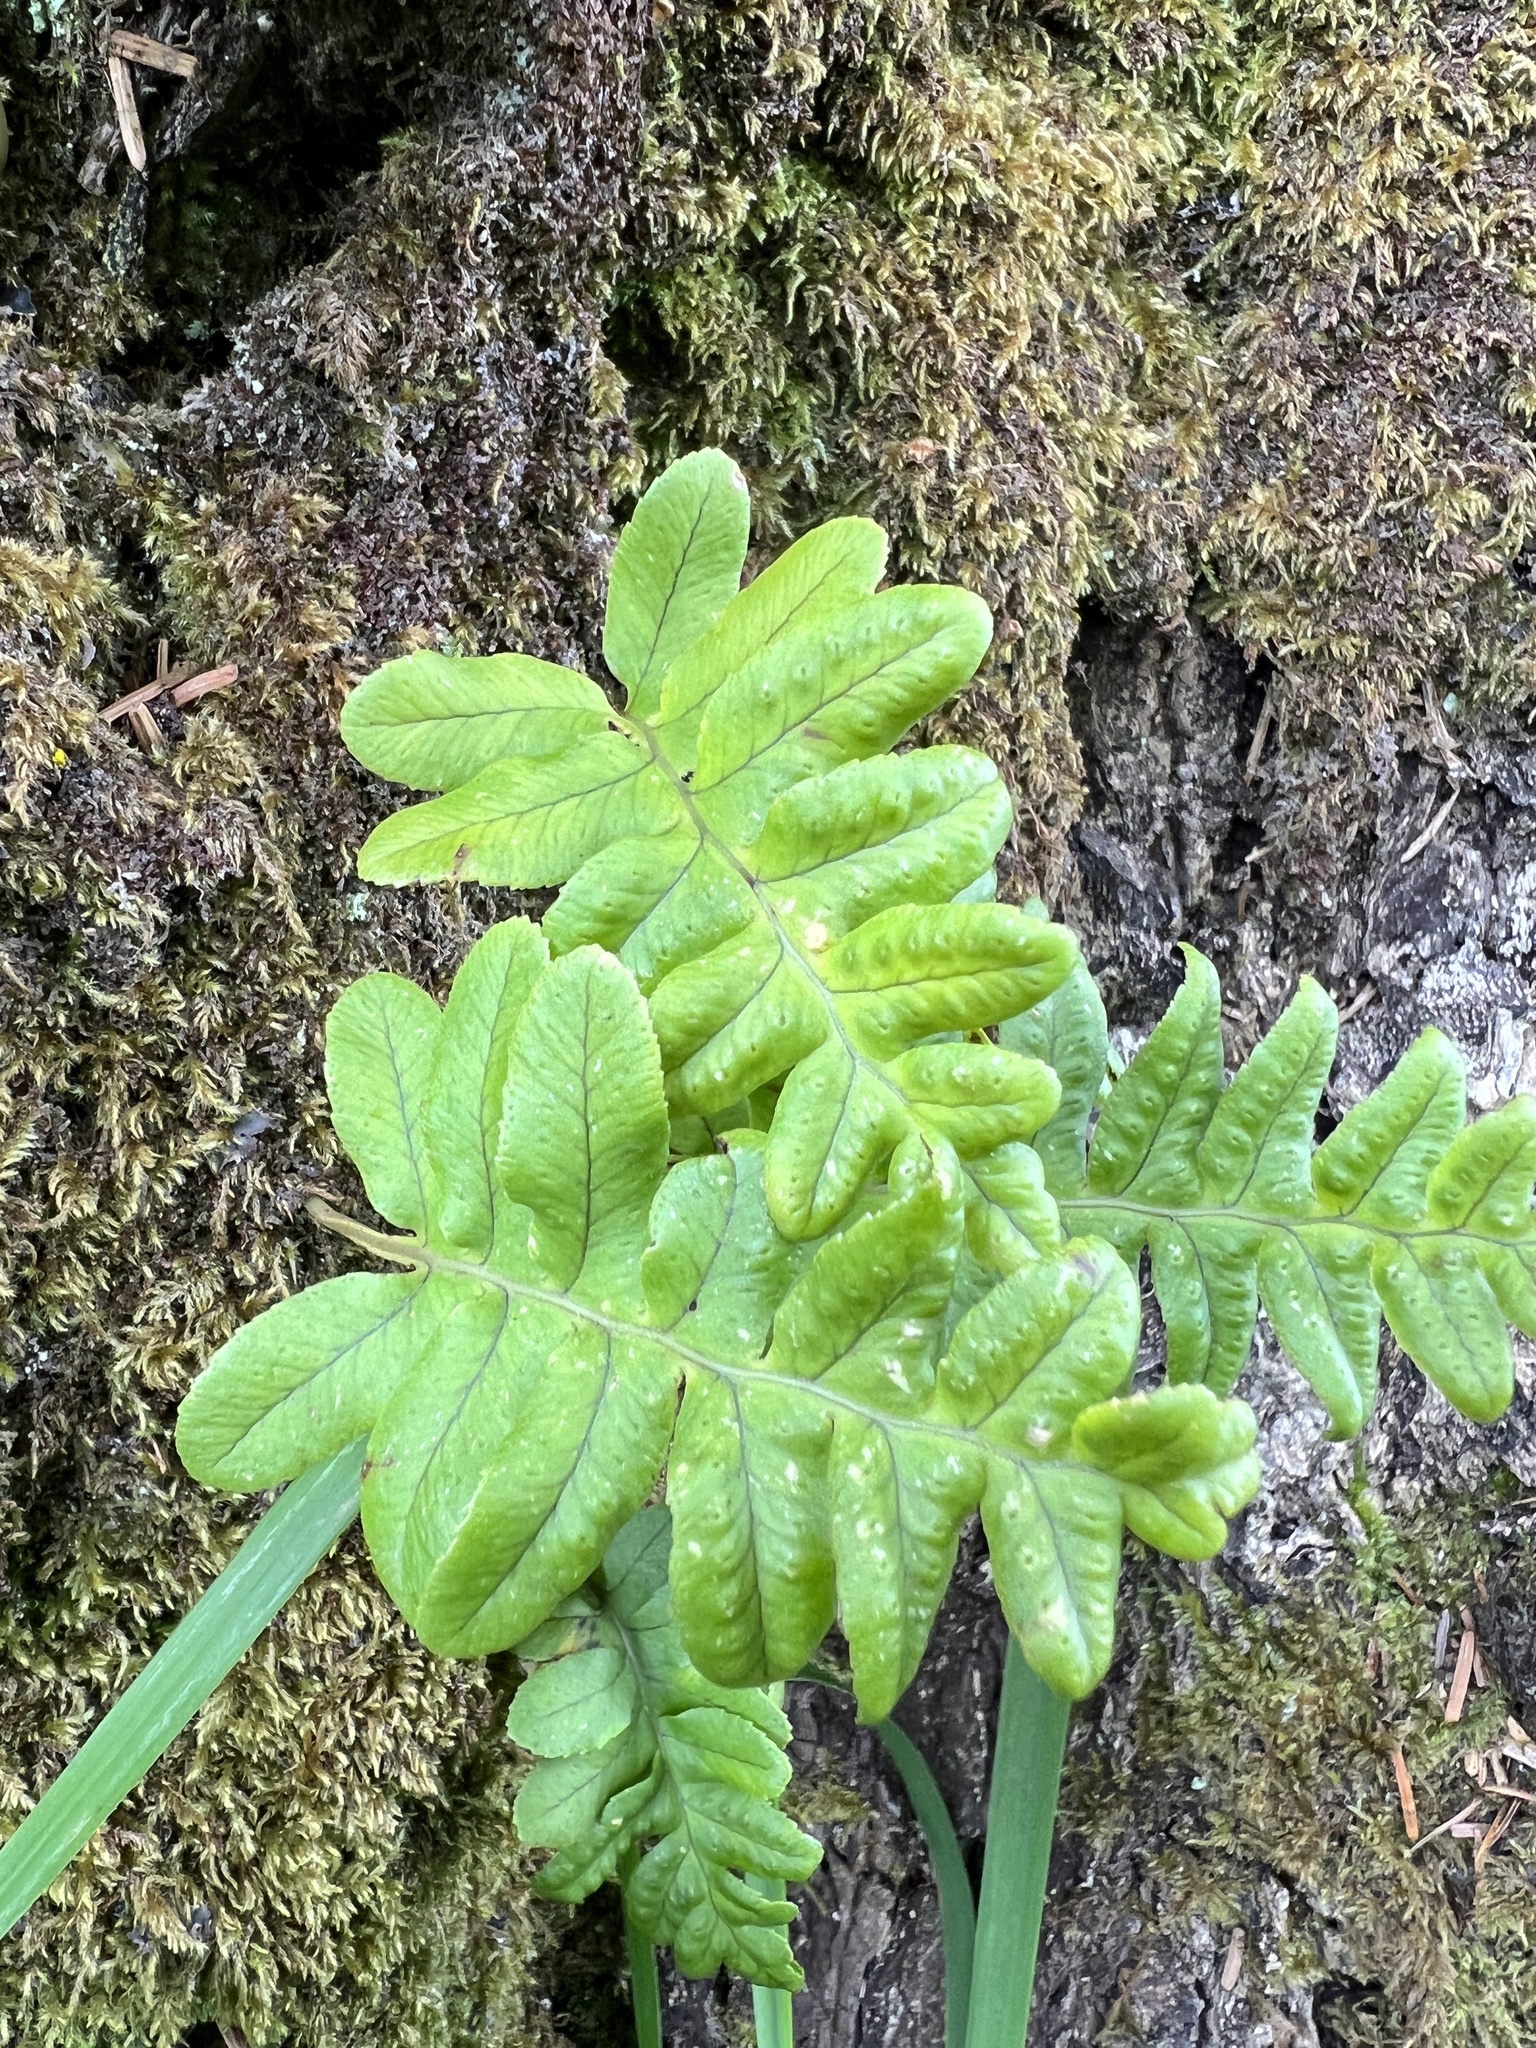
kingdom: Plantae
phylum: Tracheophyta
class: Polypodiopsida
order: Polypodiales
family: Polypodiaceae
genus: Polypodium
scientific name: Polypodium scouleri
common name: Scouler's polypody
